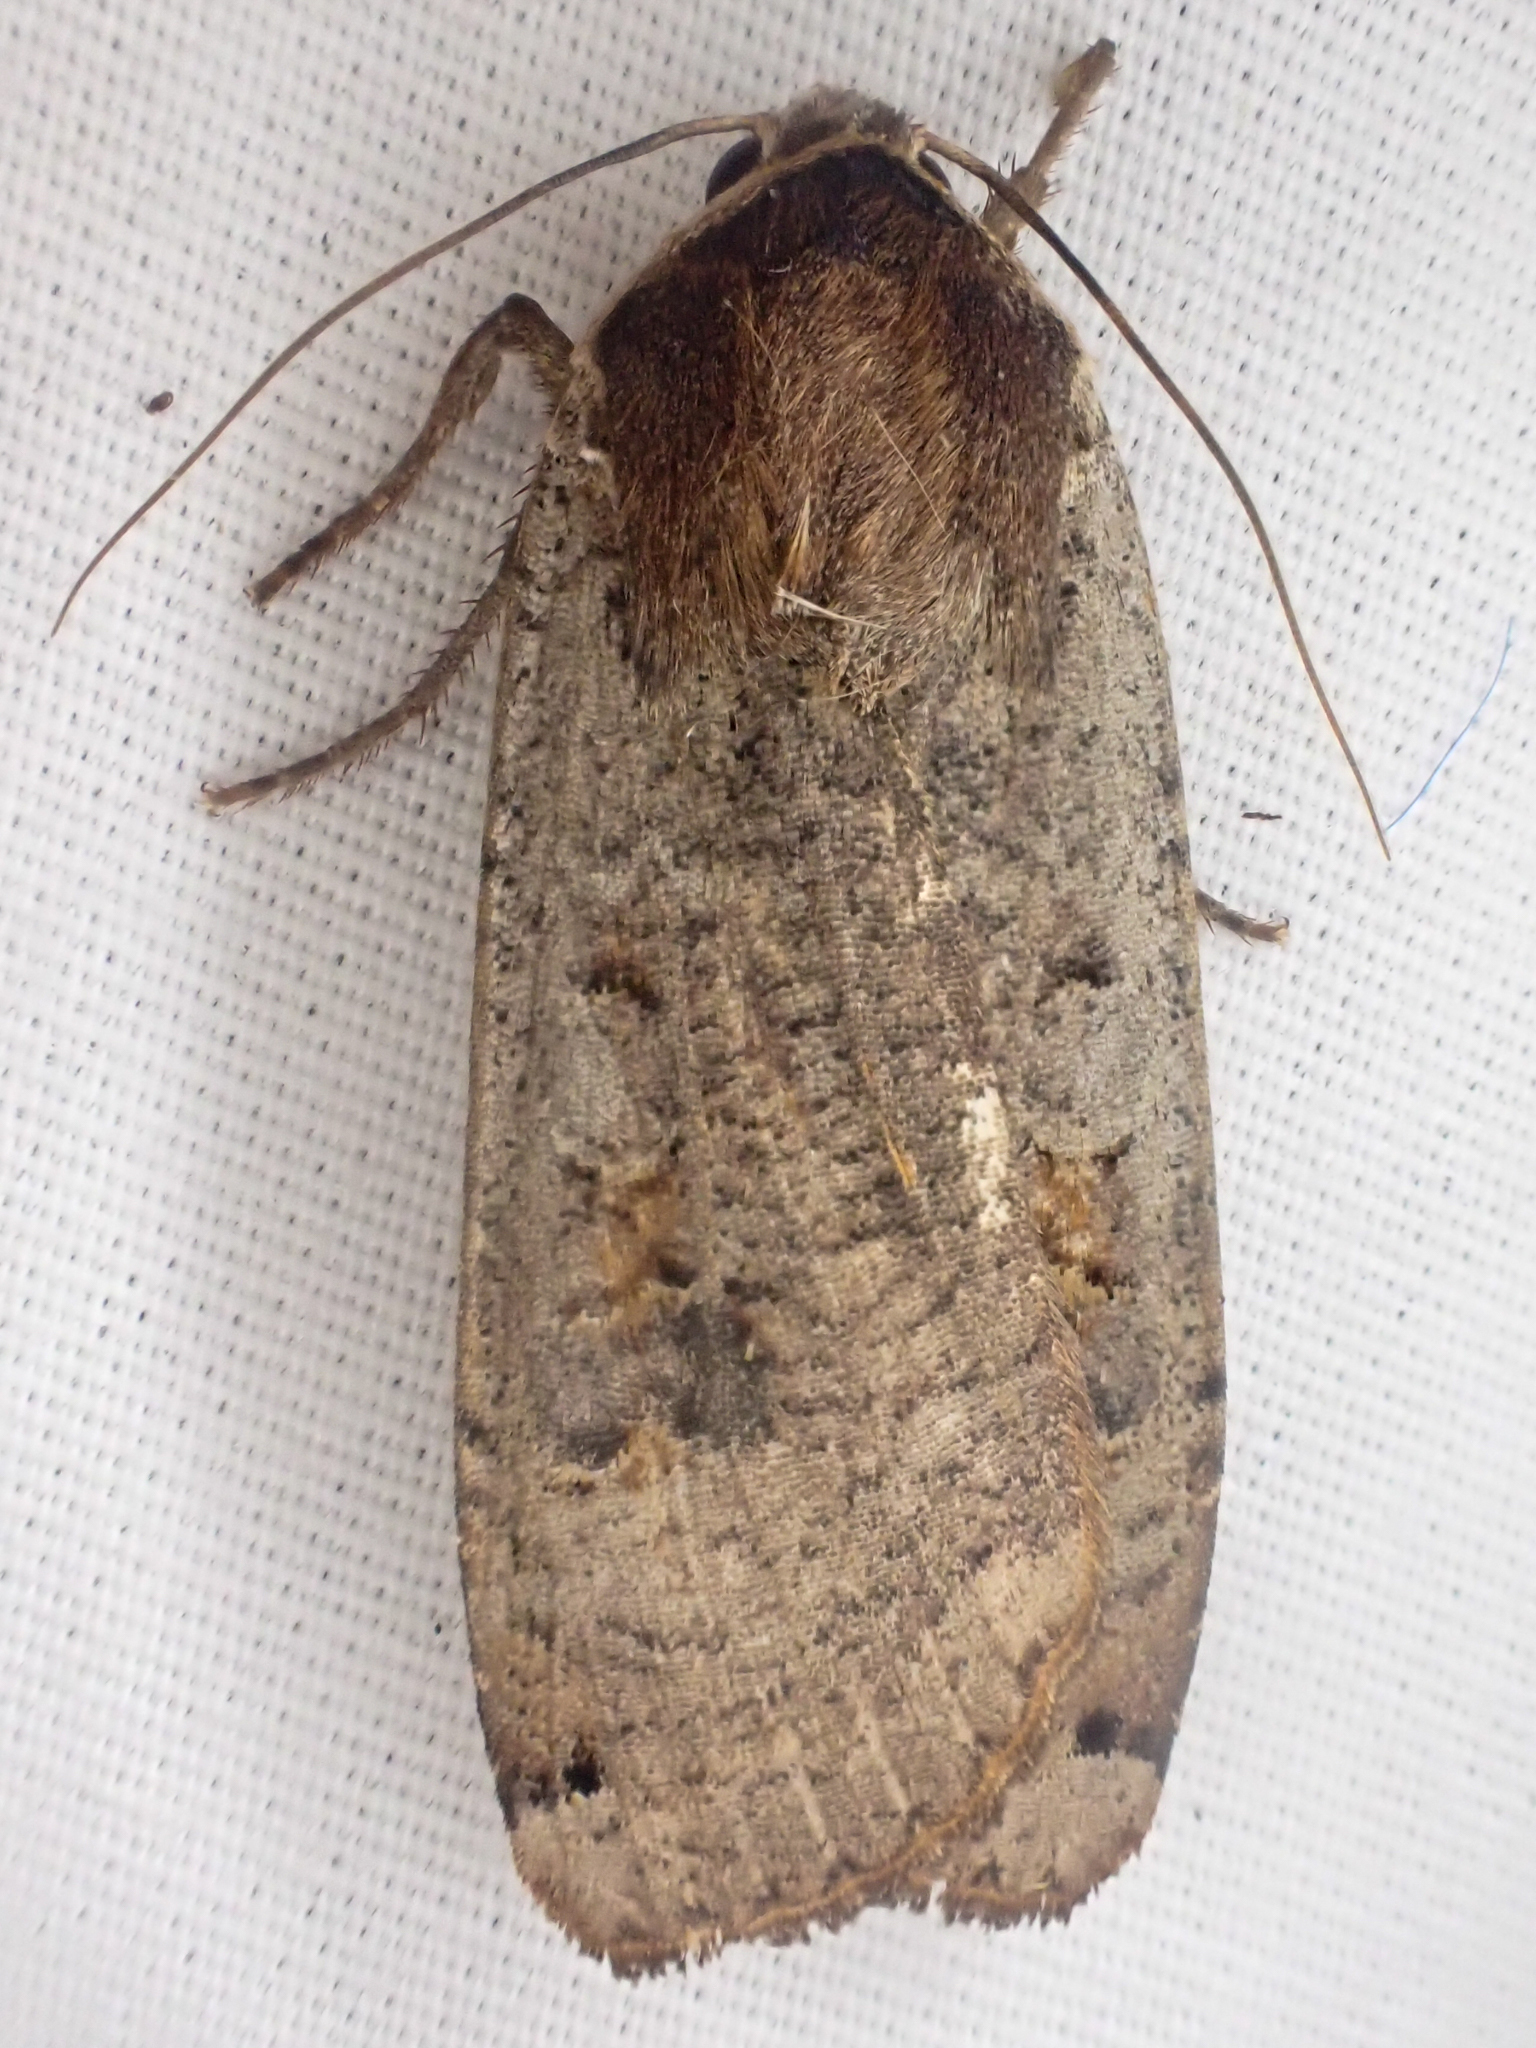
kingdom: Animalia
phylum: Arthropoda
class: Insecta
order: Lepidoptera
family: Noctuidae
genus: Noctua
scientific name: Noctua pronuba
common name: Large yellow underwing
